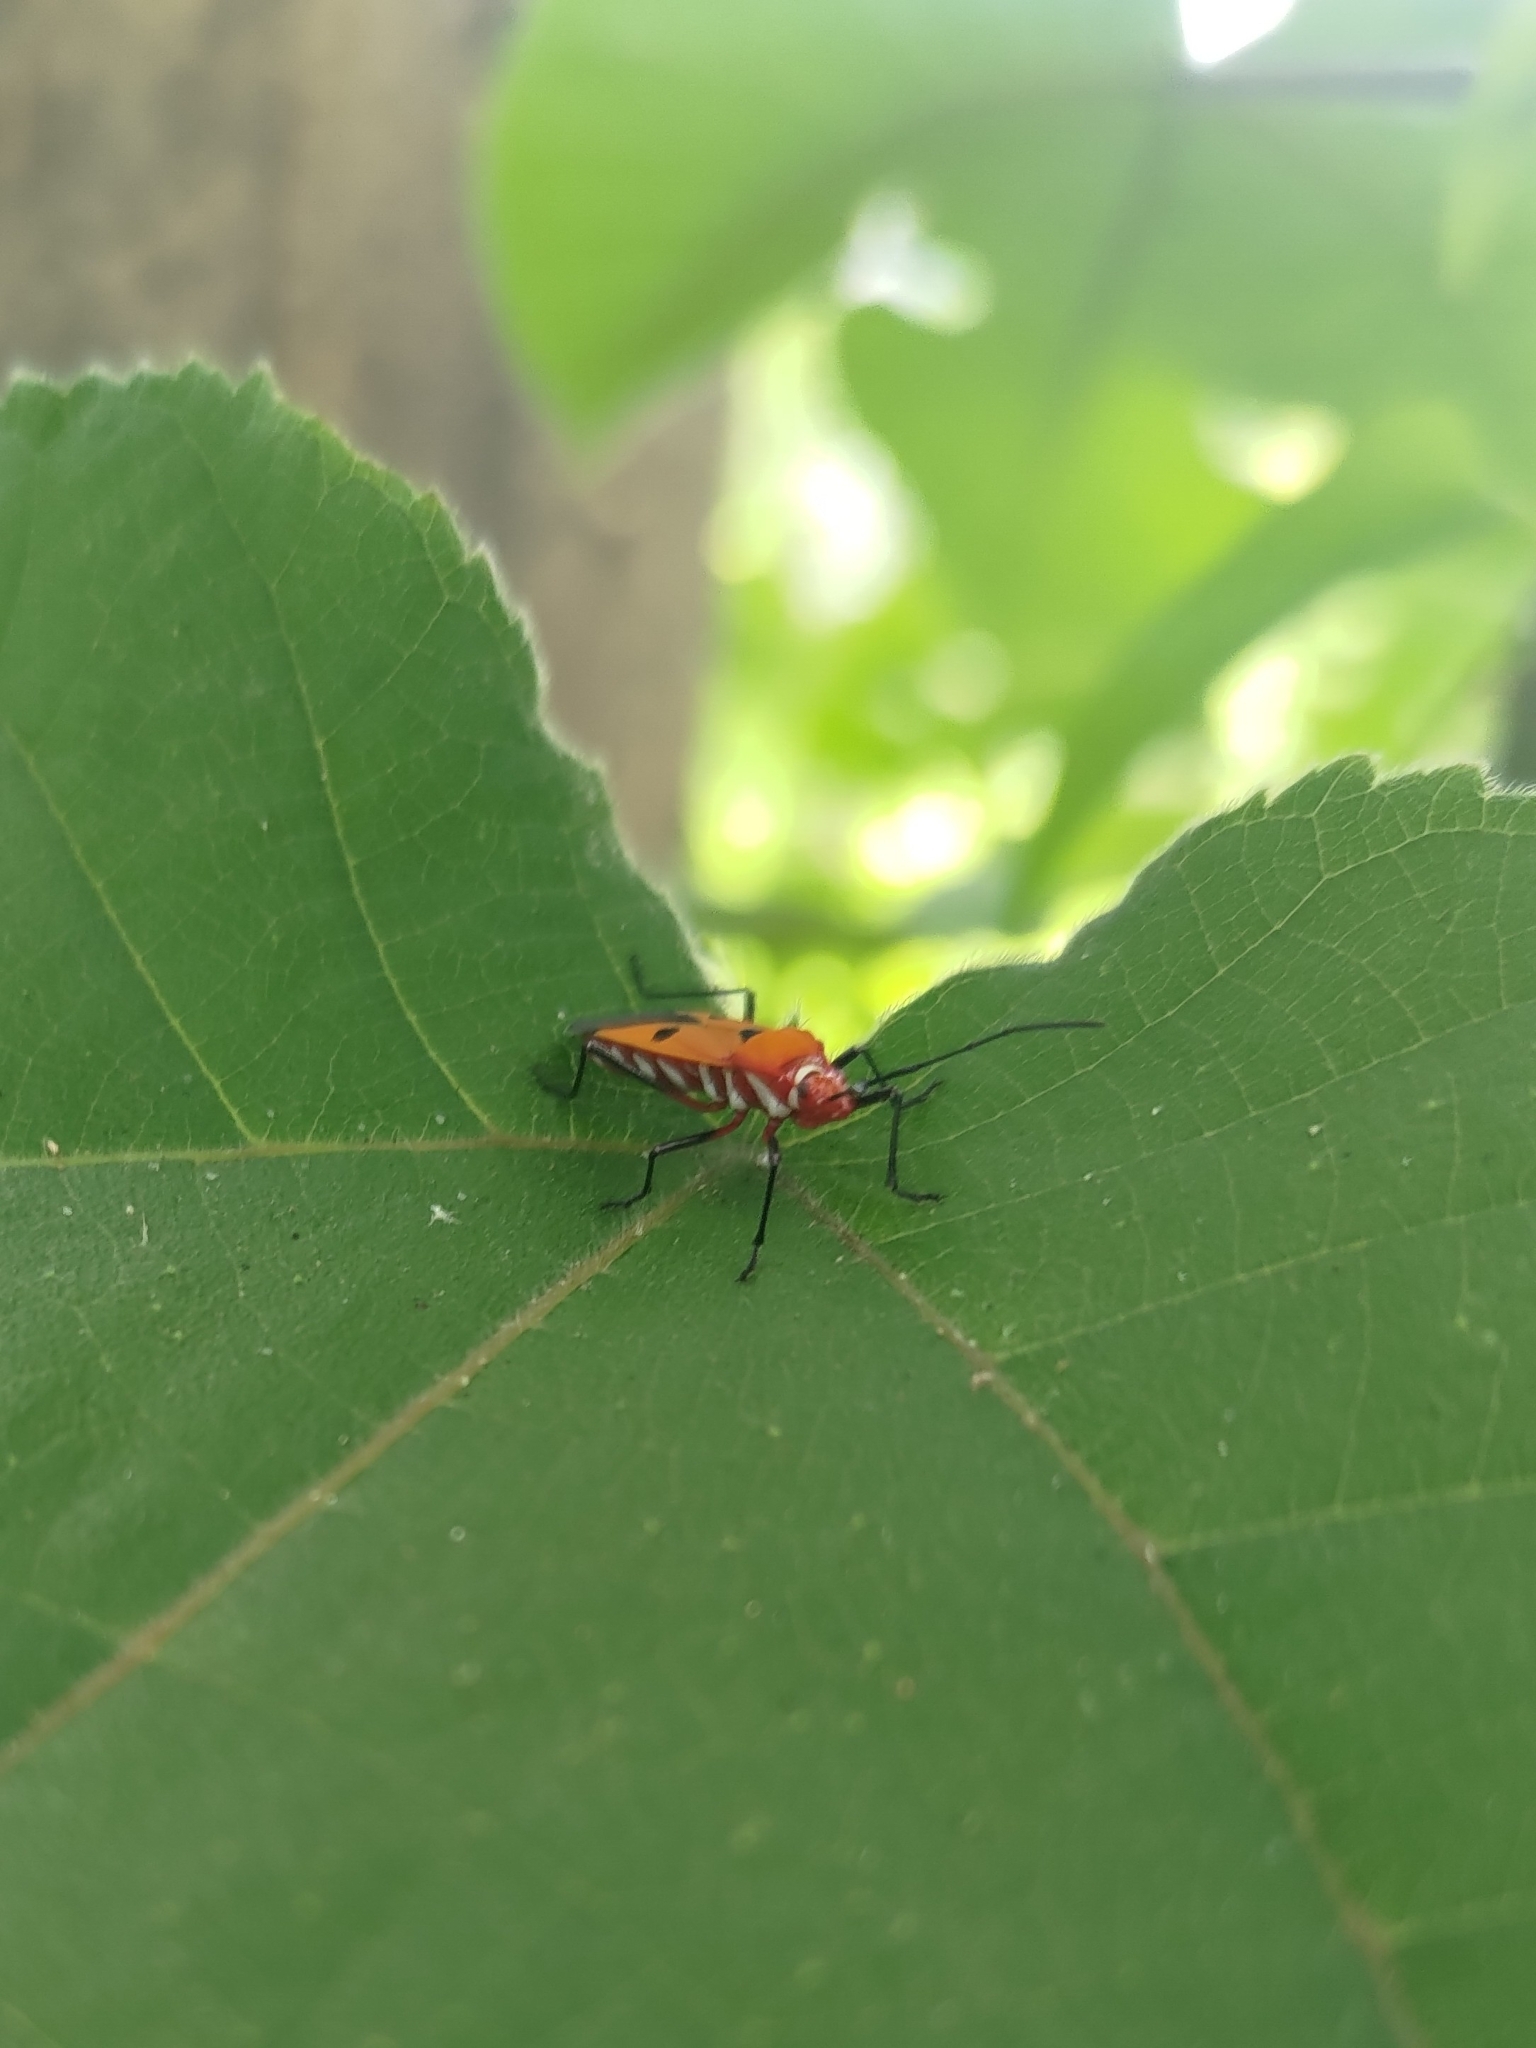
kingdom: Animalia
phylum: Arthropoda
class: Insecta
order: Hemiptera
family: Pyrrhocoridae
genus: Dysdercus
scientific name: Dysdercus cingulatus
